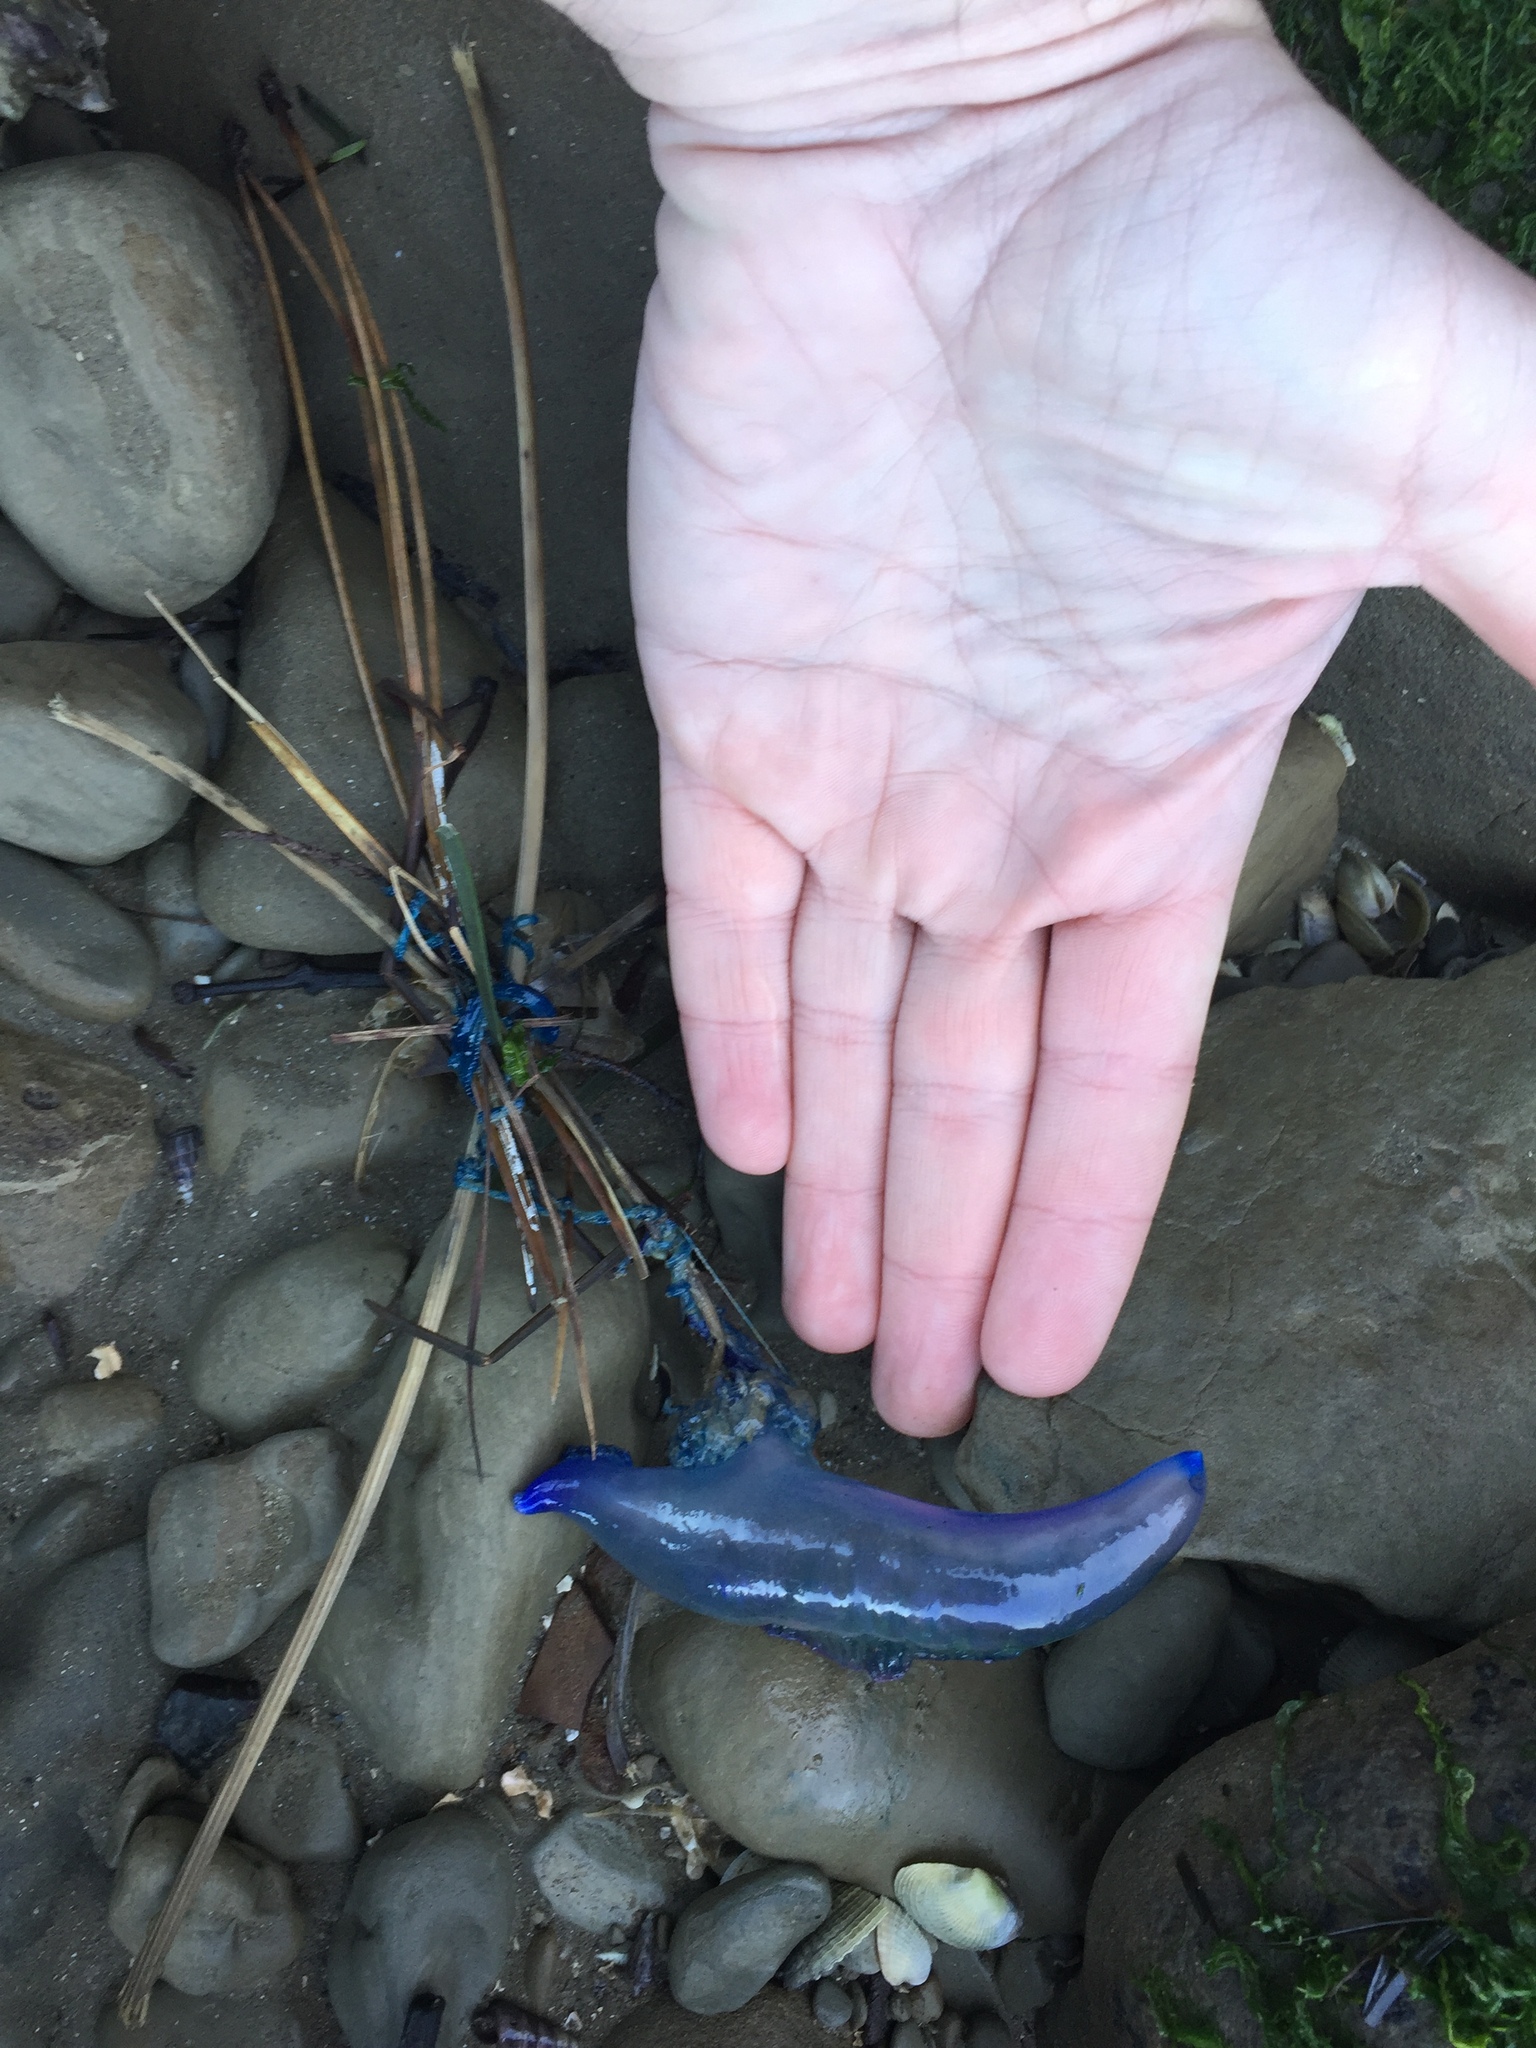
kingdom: Animalia
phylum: Cnidaria
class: Hydrozoa
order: Siphonophorae
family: Physaliidae
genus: Physalia
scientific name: Physalia physalis
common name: Portuguese man-of-war
